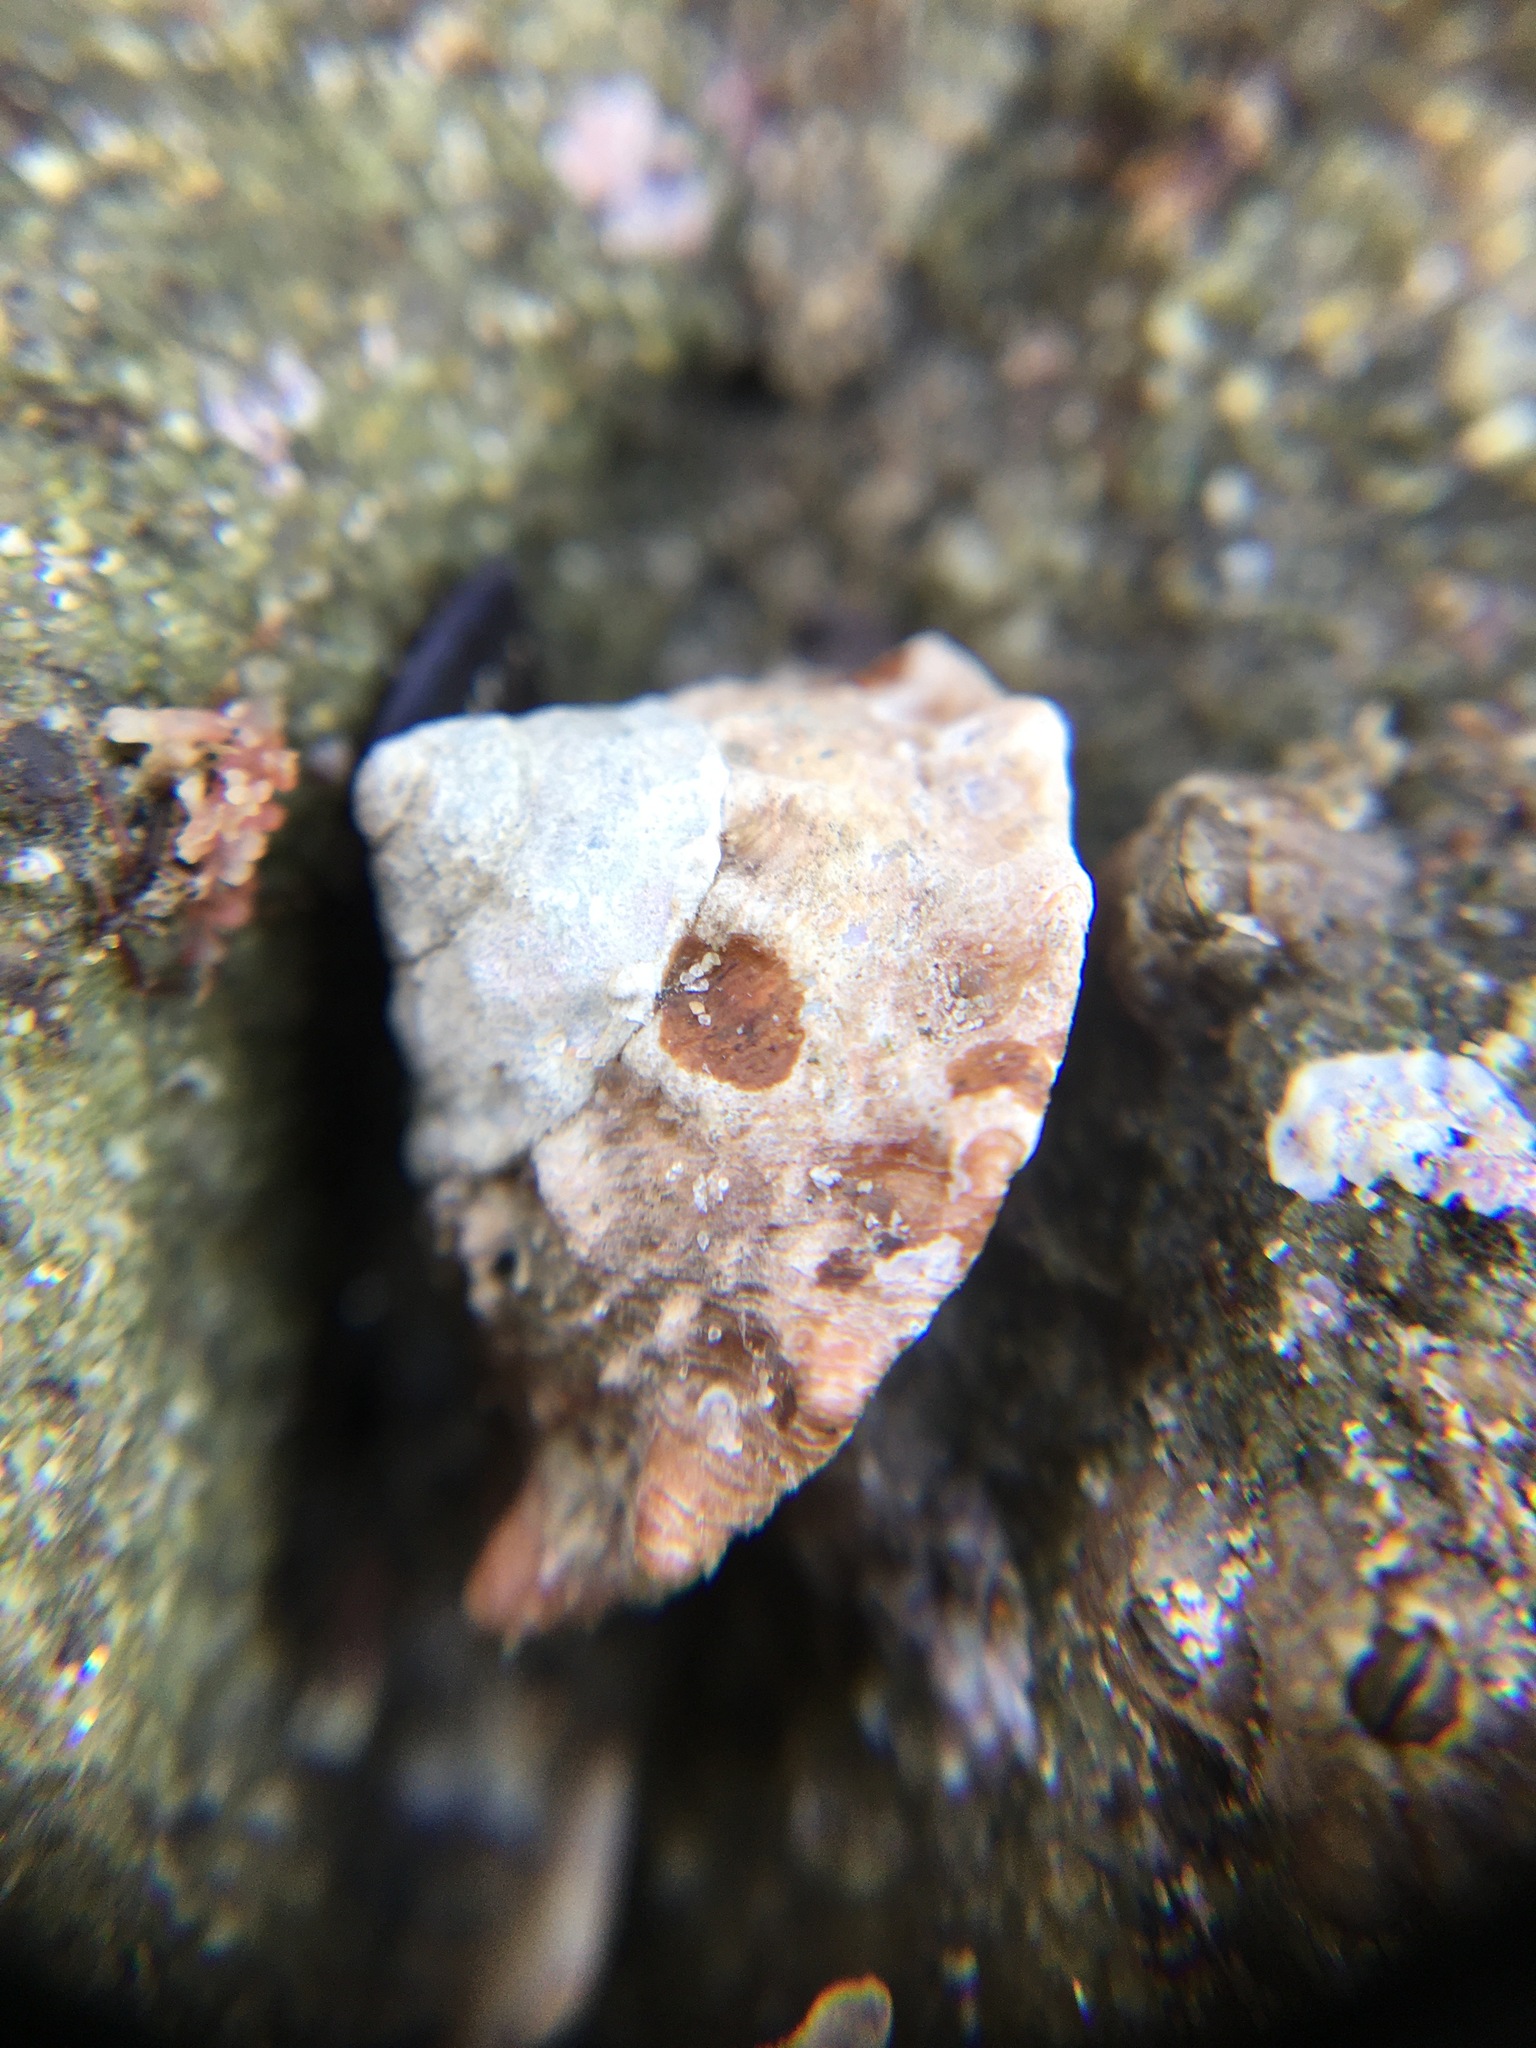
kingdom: Animalia
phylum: Mollusca
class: Gastropoda
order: Trochida
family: Turbinidae
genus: Megastraea
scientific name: Megastraea undosa
